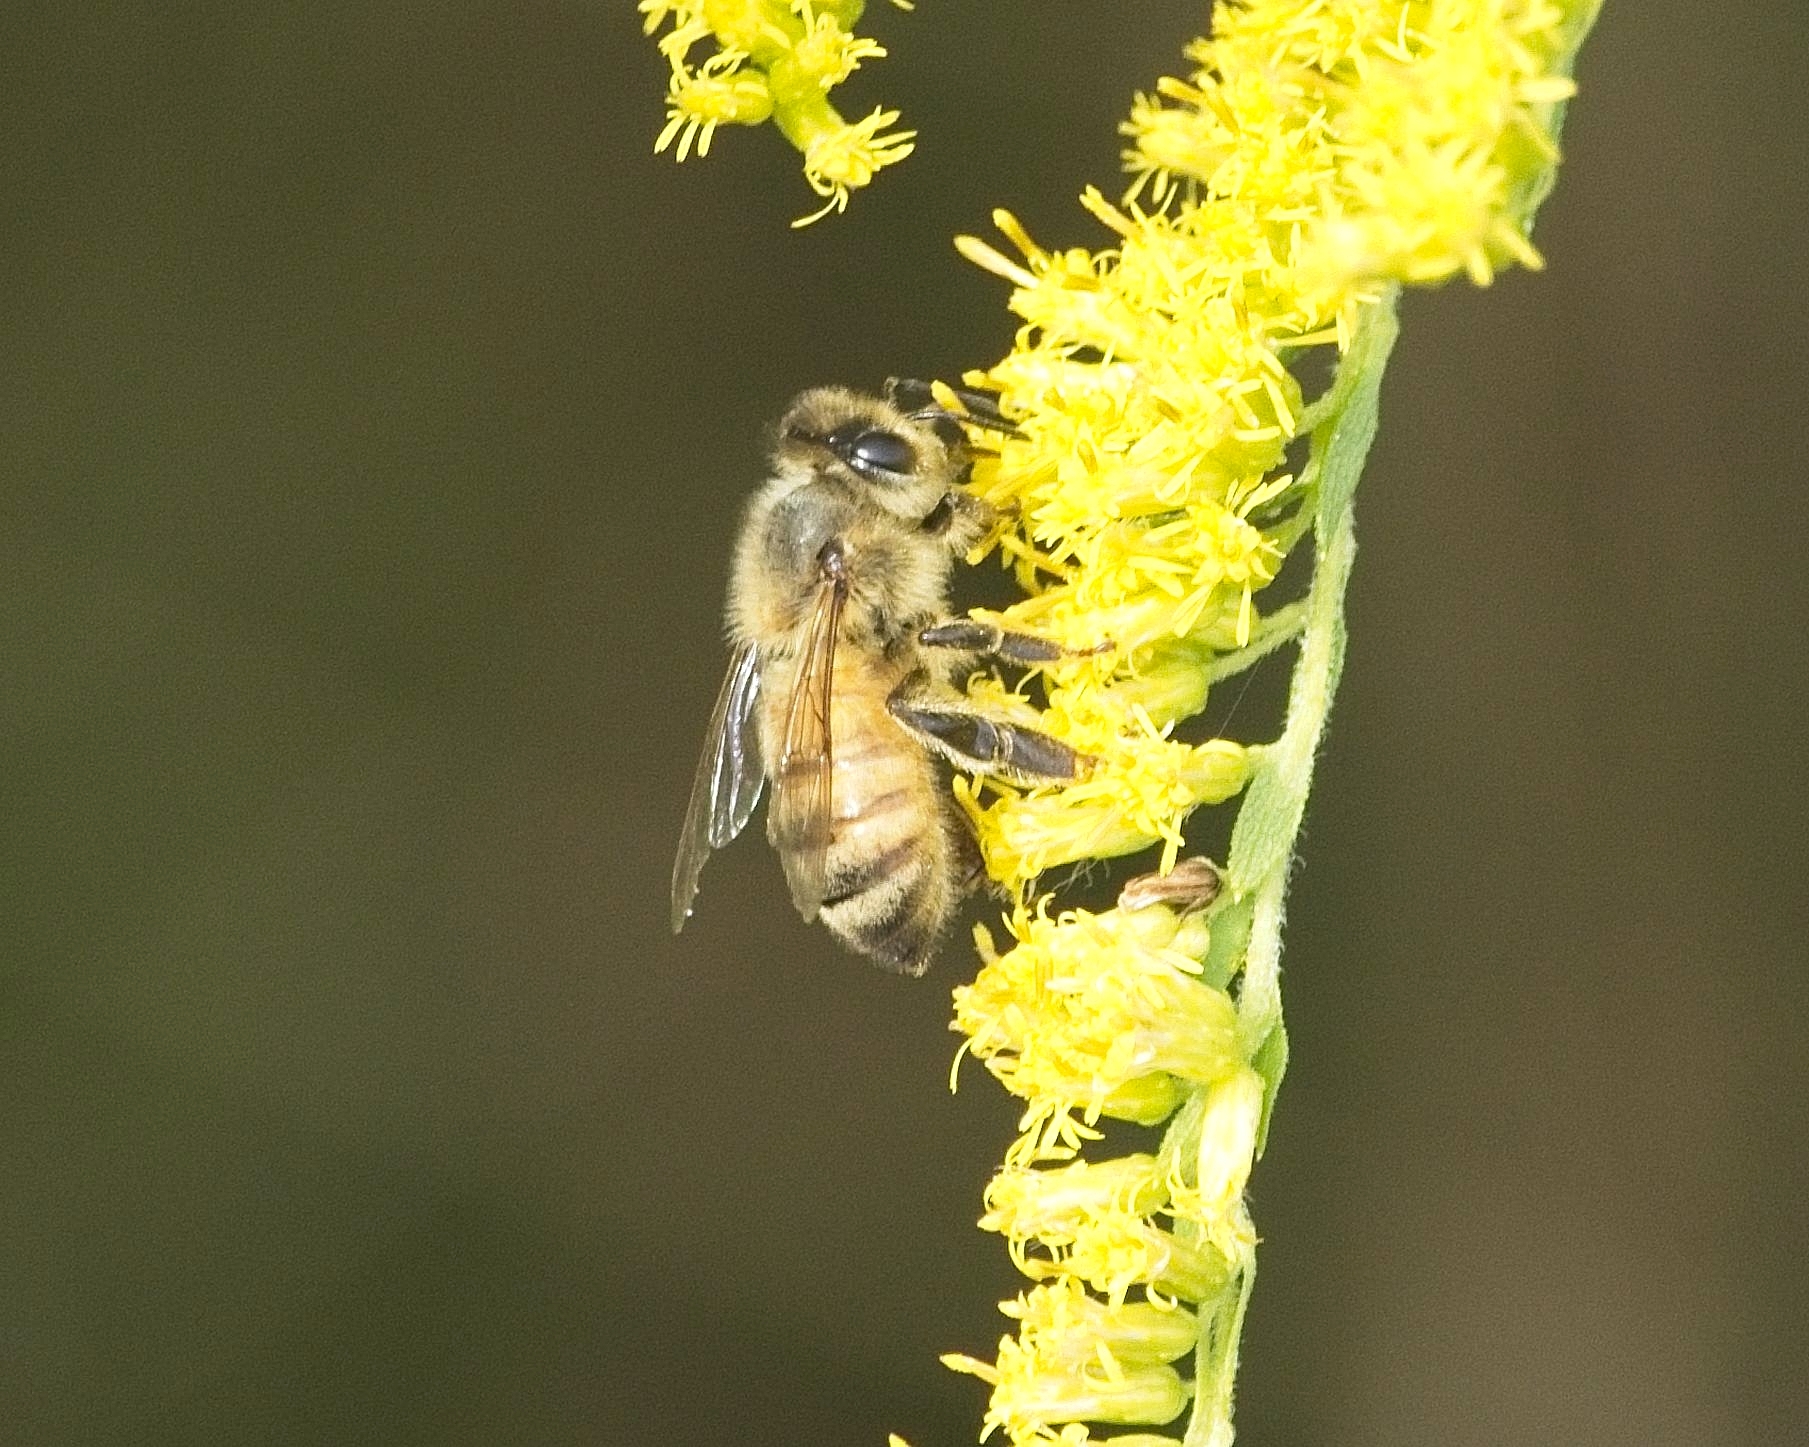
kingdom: Animalia
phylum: Arthropoda
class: Insecta
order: Hymenoptera
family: Apidae
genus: Apis
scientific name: Apis mellifera
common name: Honey bee
